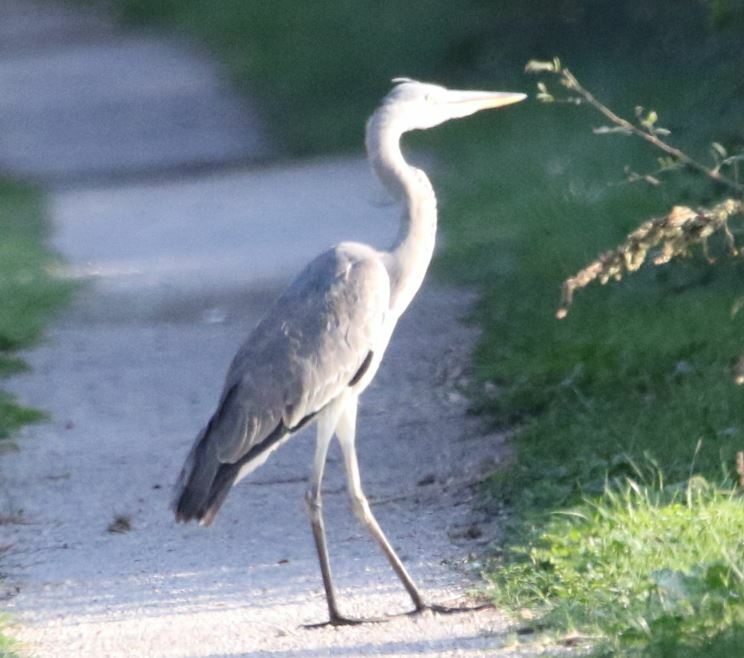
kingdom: Animalia
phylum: Chordata
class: Aves
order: Pelecaniformes
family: Ardeidae
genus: Ardea
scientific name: Ardea cinerea
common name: Grey heron
